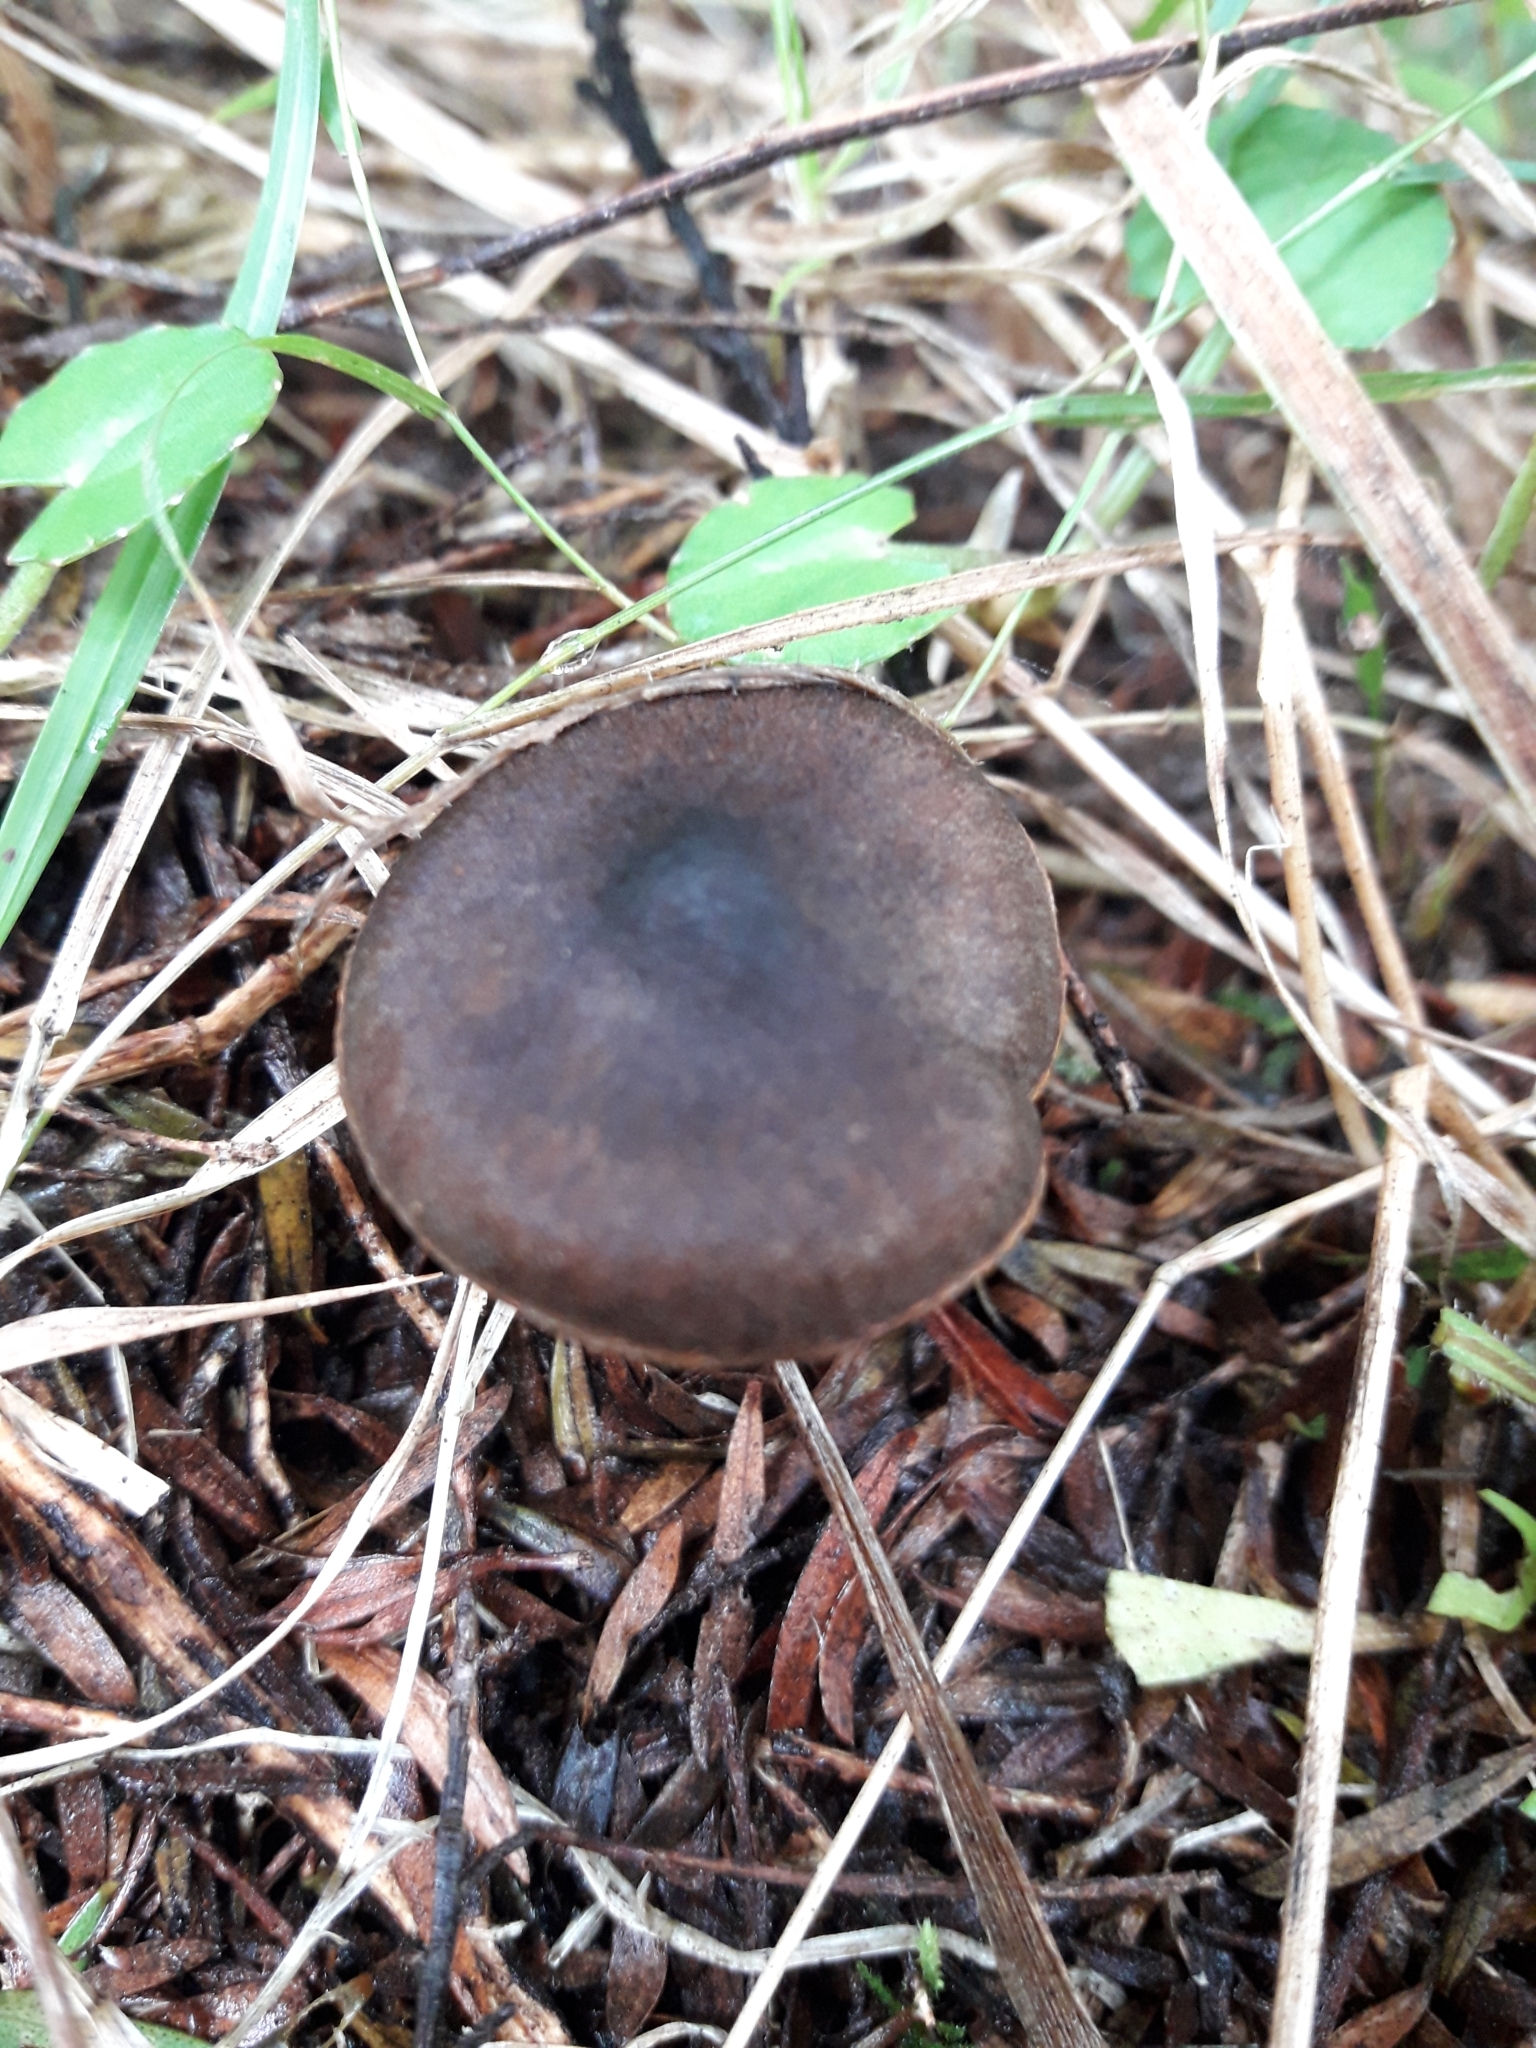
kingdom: Fungi
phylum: Basidiomycota
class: Agaricomycetes
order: Agaricales
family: Cortinariaceae
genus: Cortinarius
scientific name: Cortinarius persplendidus
